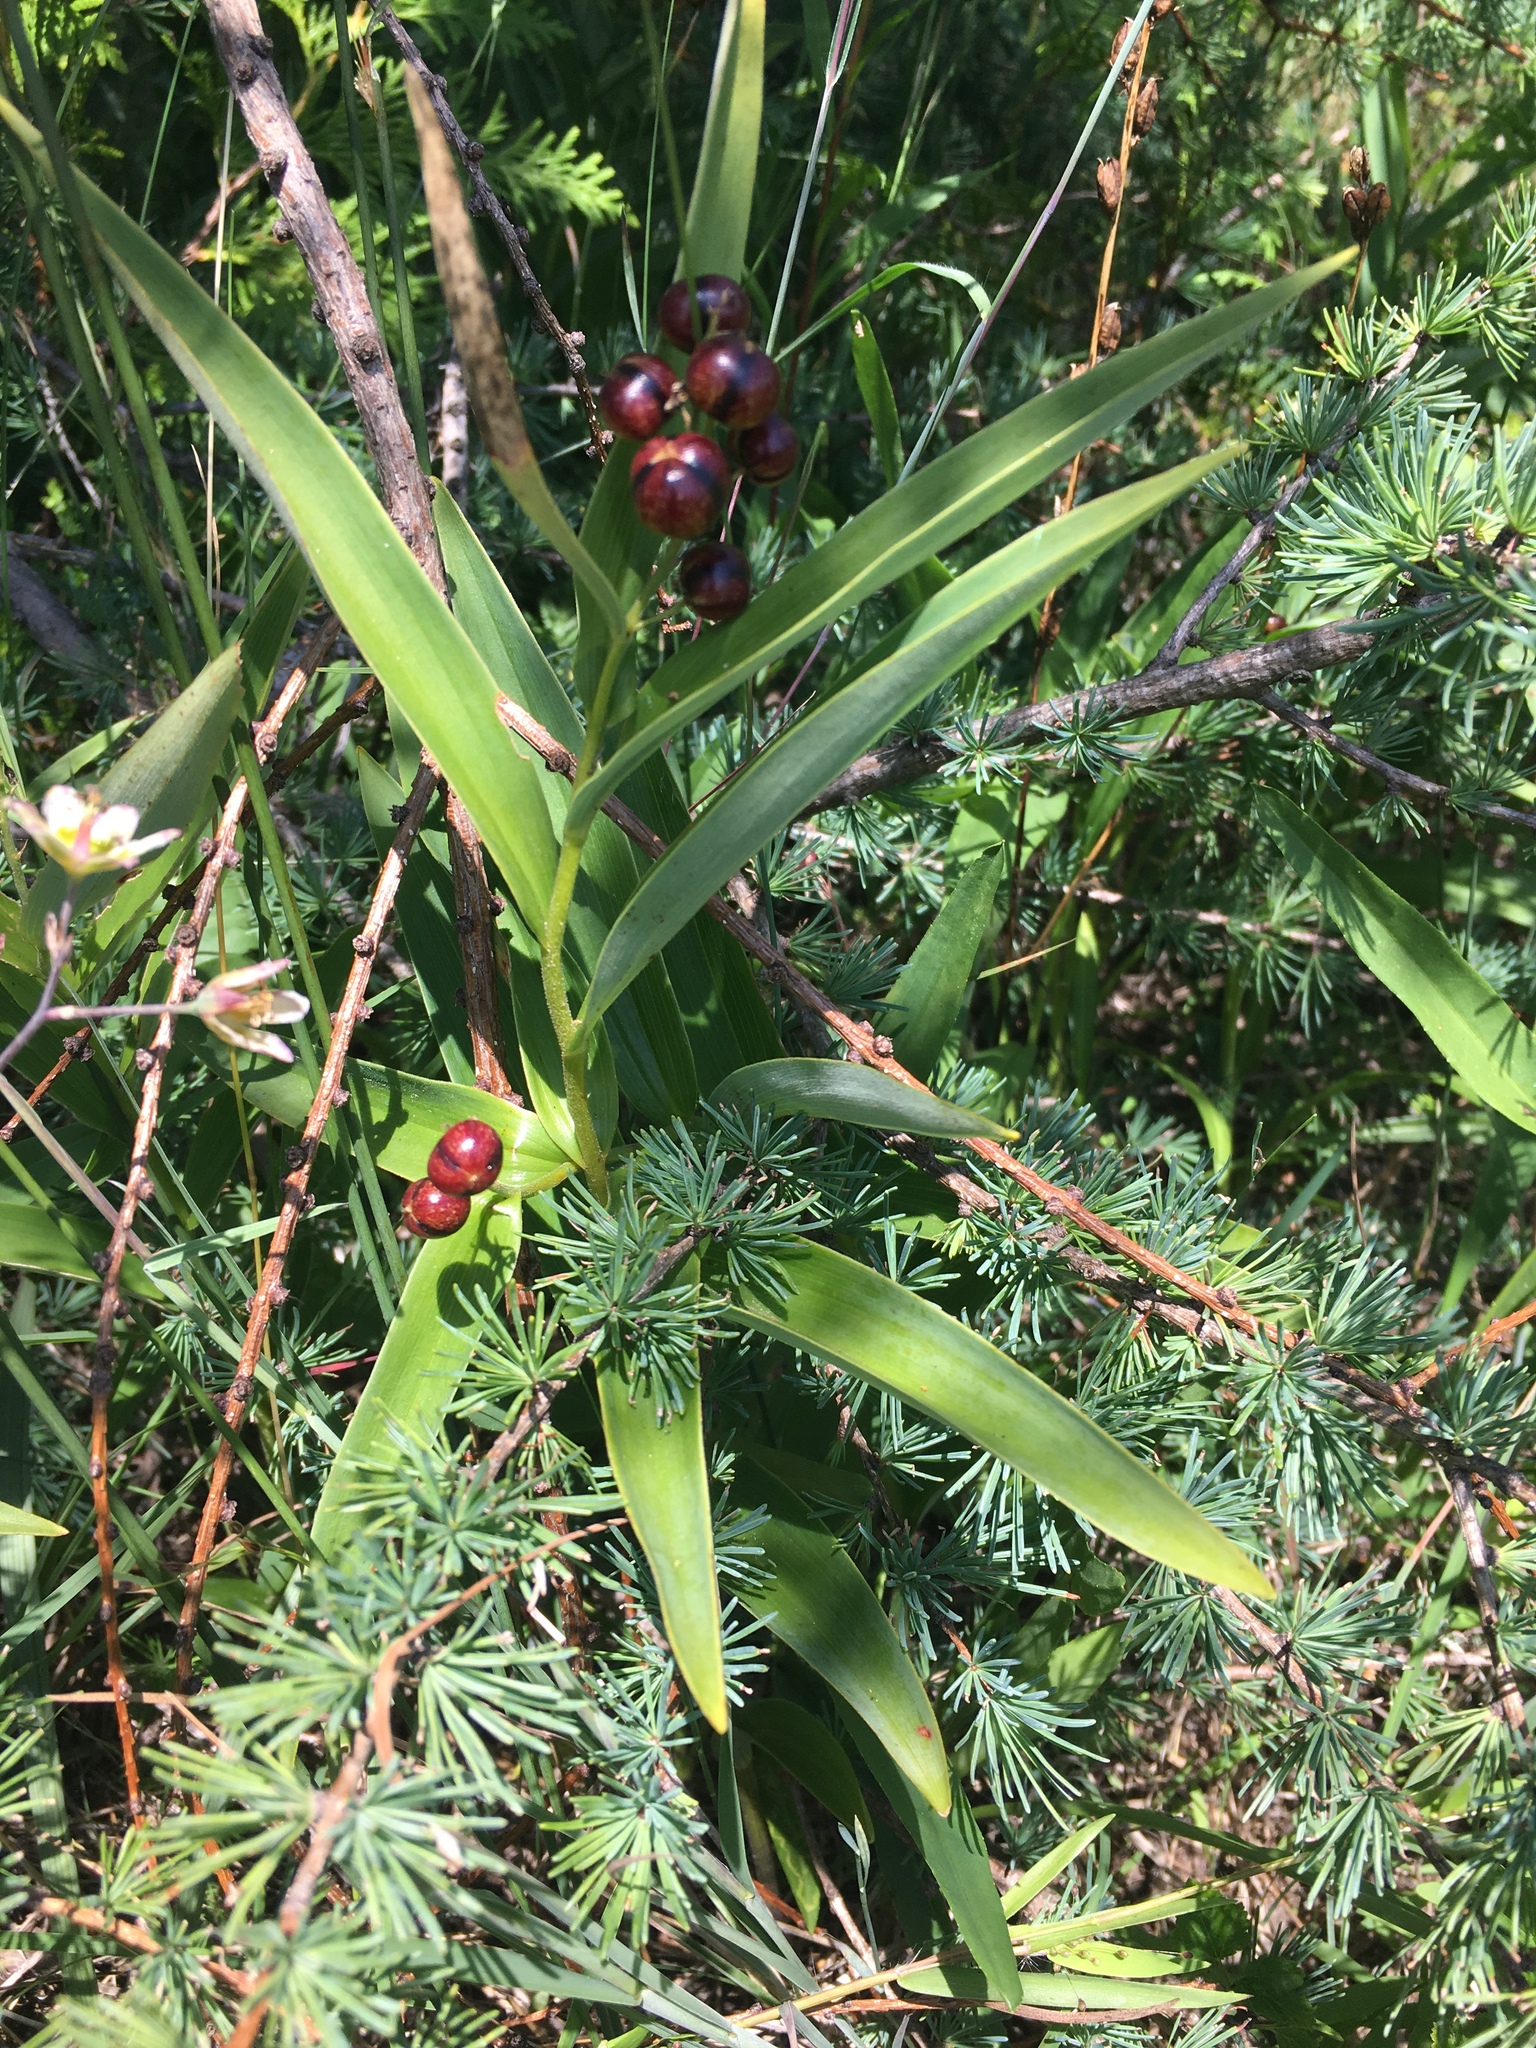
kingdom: Plantae
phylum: Tracheophyta
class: Liliopsida
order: Asparagales
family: Asparagaceae
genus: Maianthemum
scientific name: Maianthemum stellatum
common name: Little false solomon's seal
